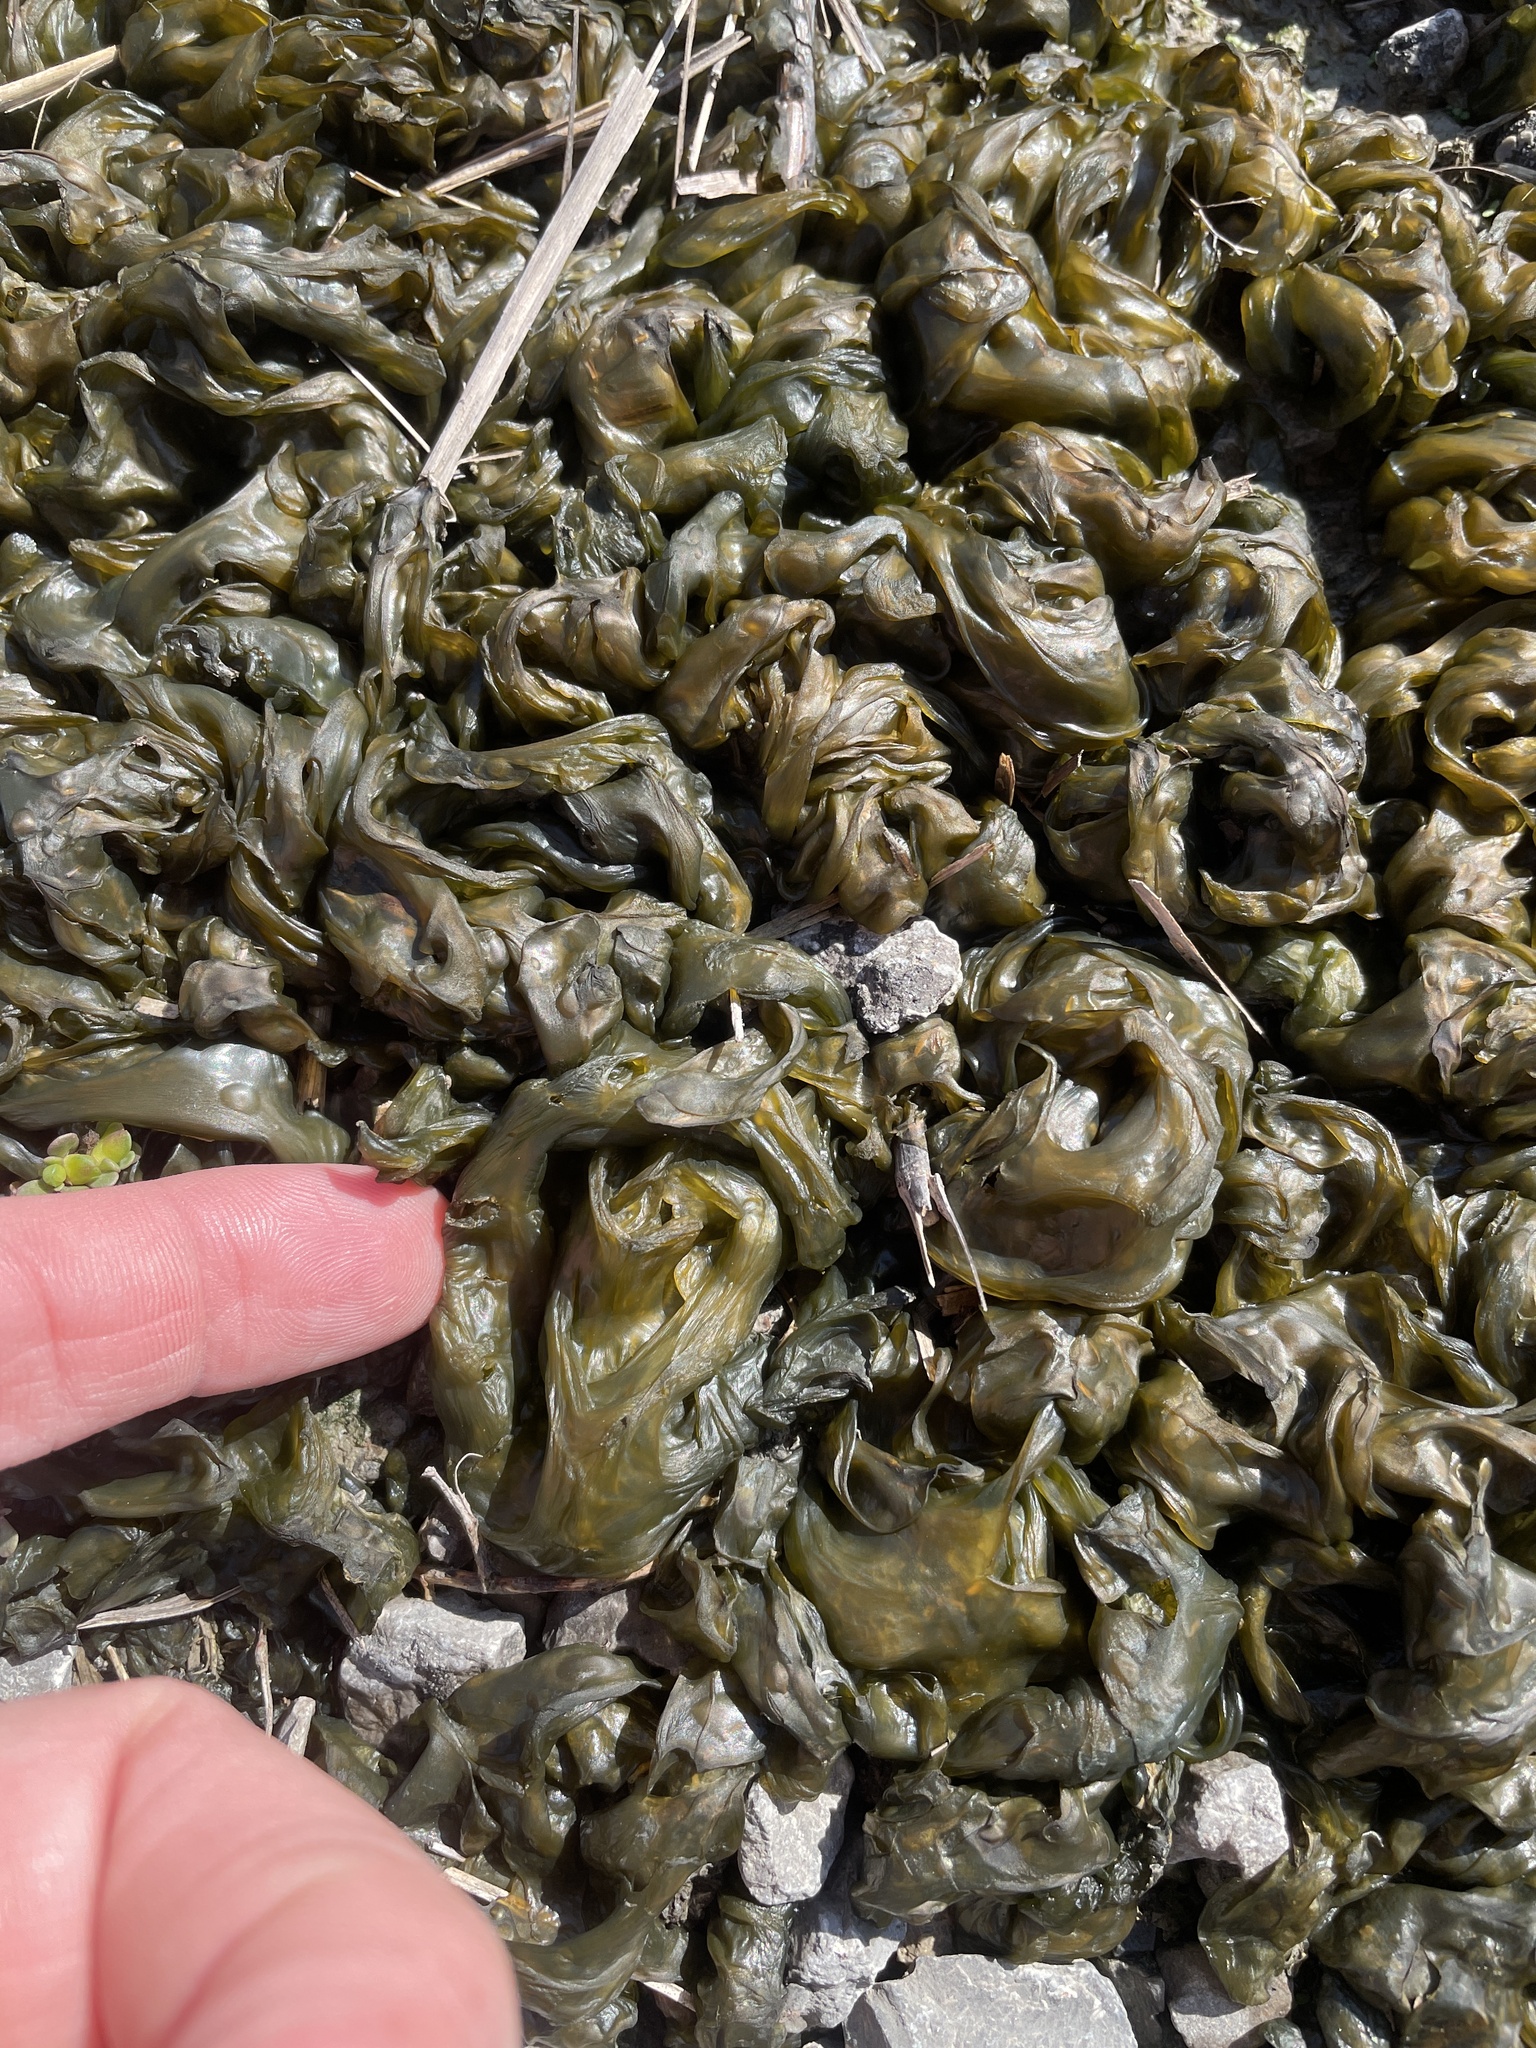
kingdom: Bacteria
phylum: Cyanobacteria
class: Cyanobacteriia
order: Cyanobacteriales
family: Nostocaceae
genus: Nostoc
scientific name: Nostoc commune
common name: Star jelly
